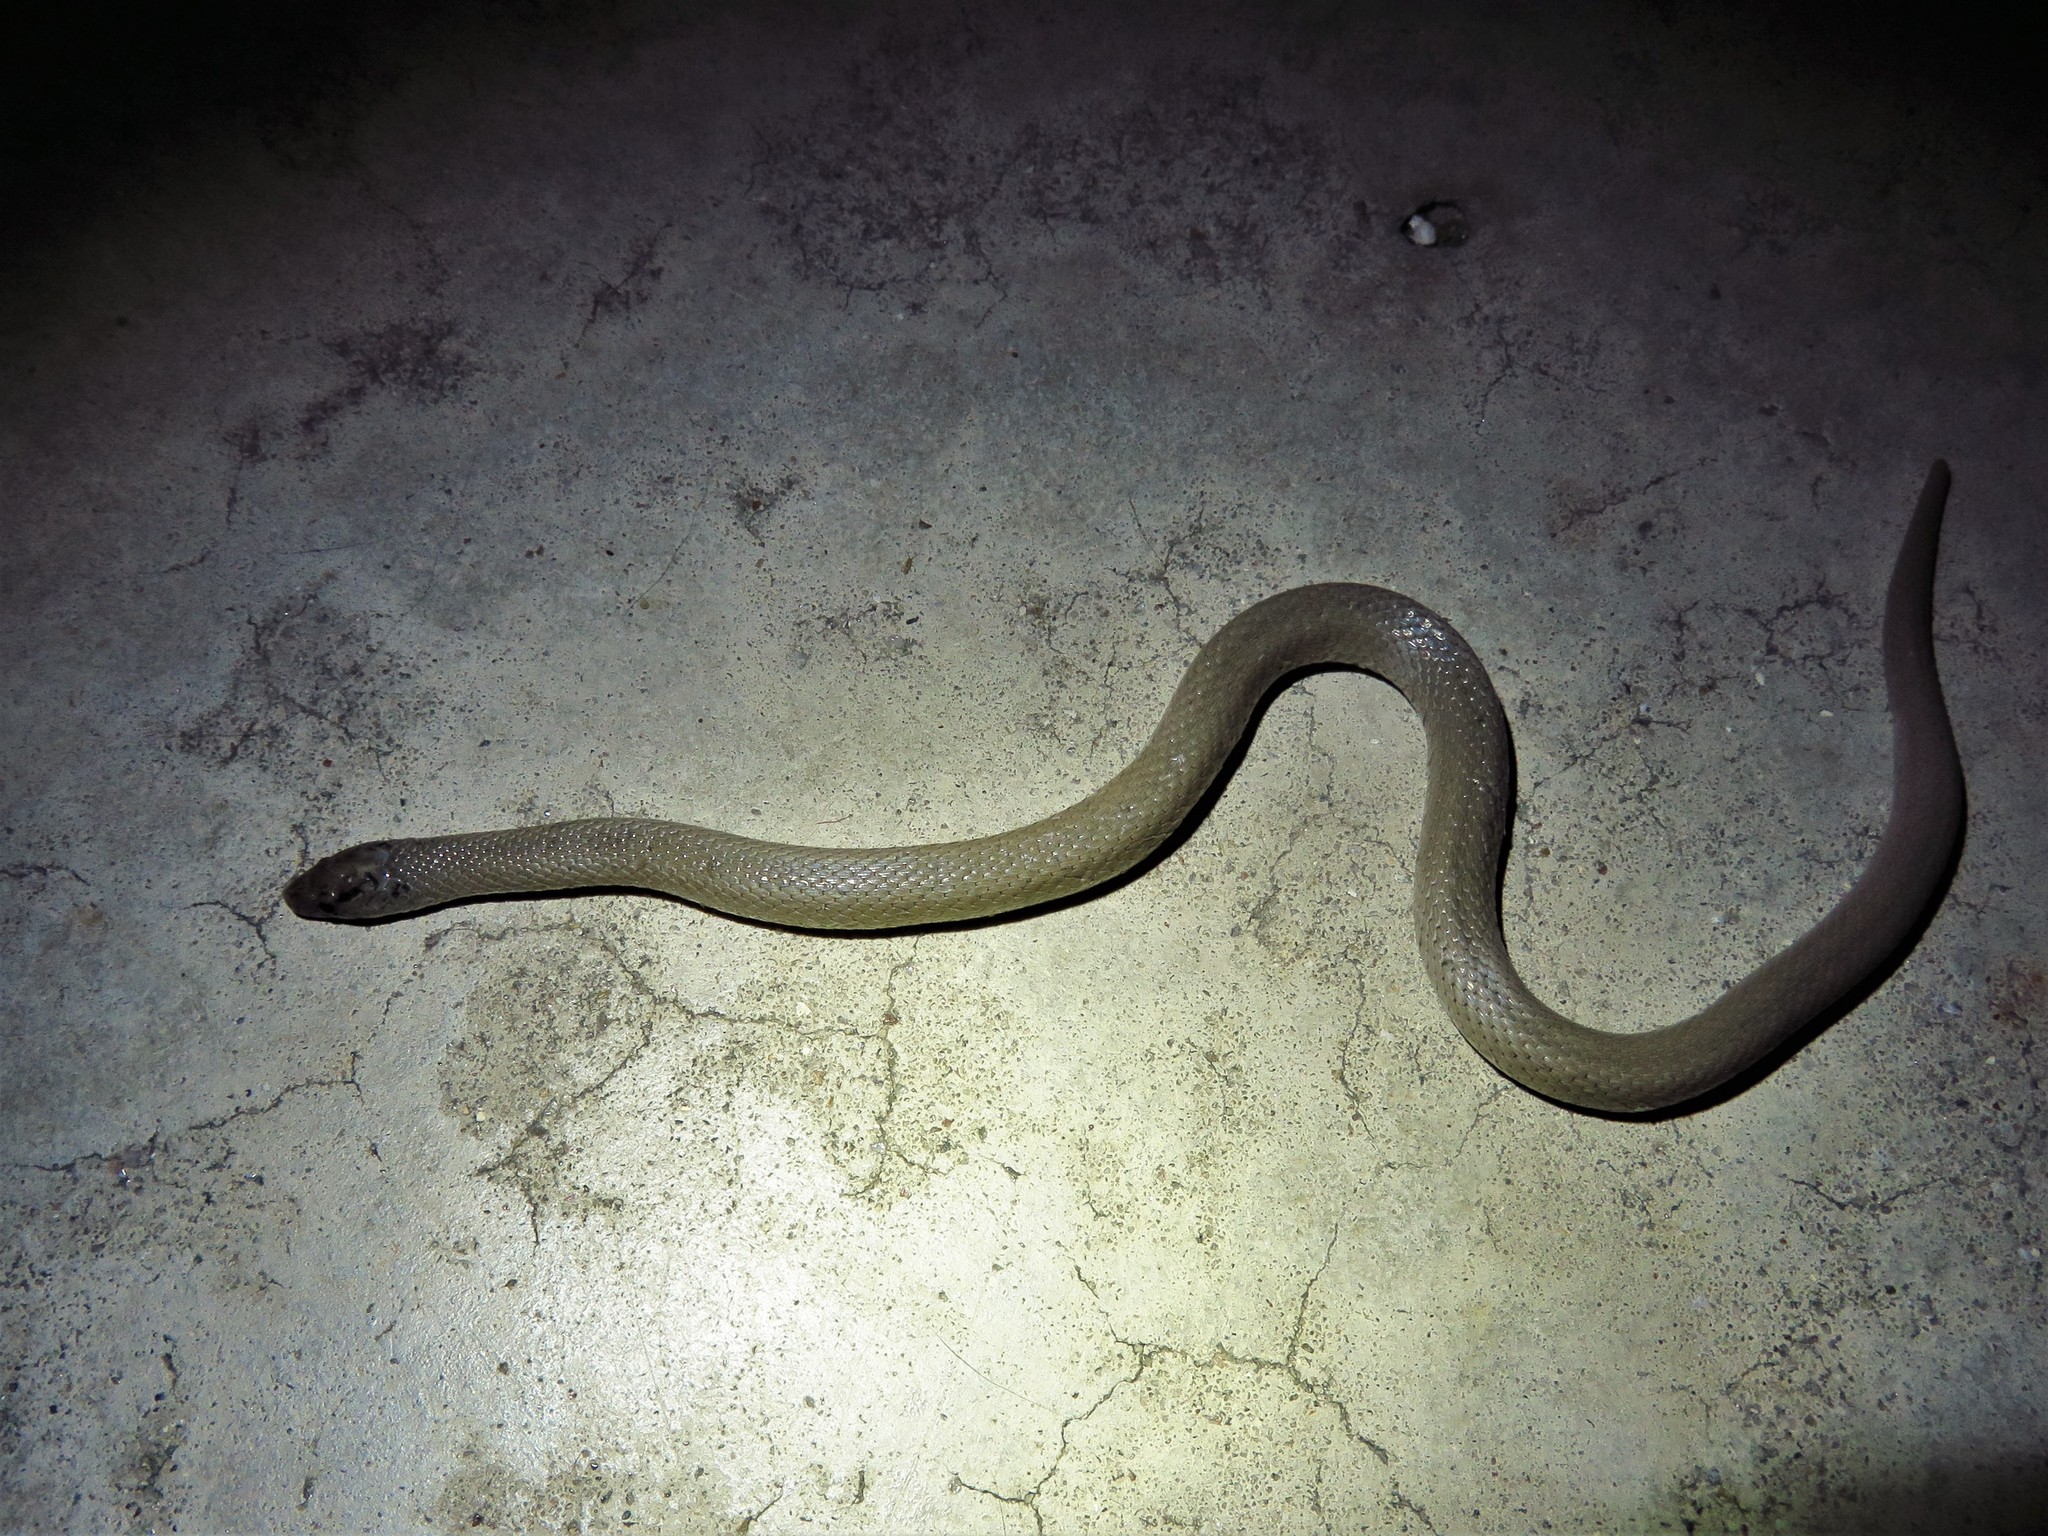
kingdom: Animalia
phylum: Chordata
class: Squamata
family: Colubridae
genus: Haldea
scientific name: Haldea striatula
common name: Rough earth snake
